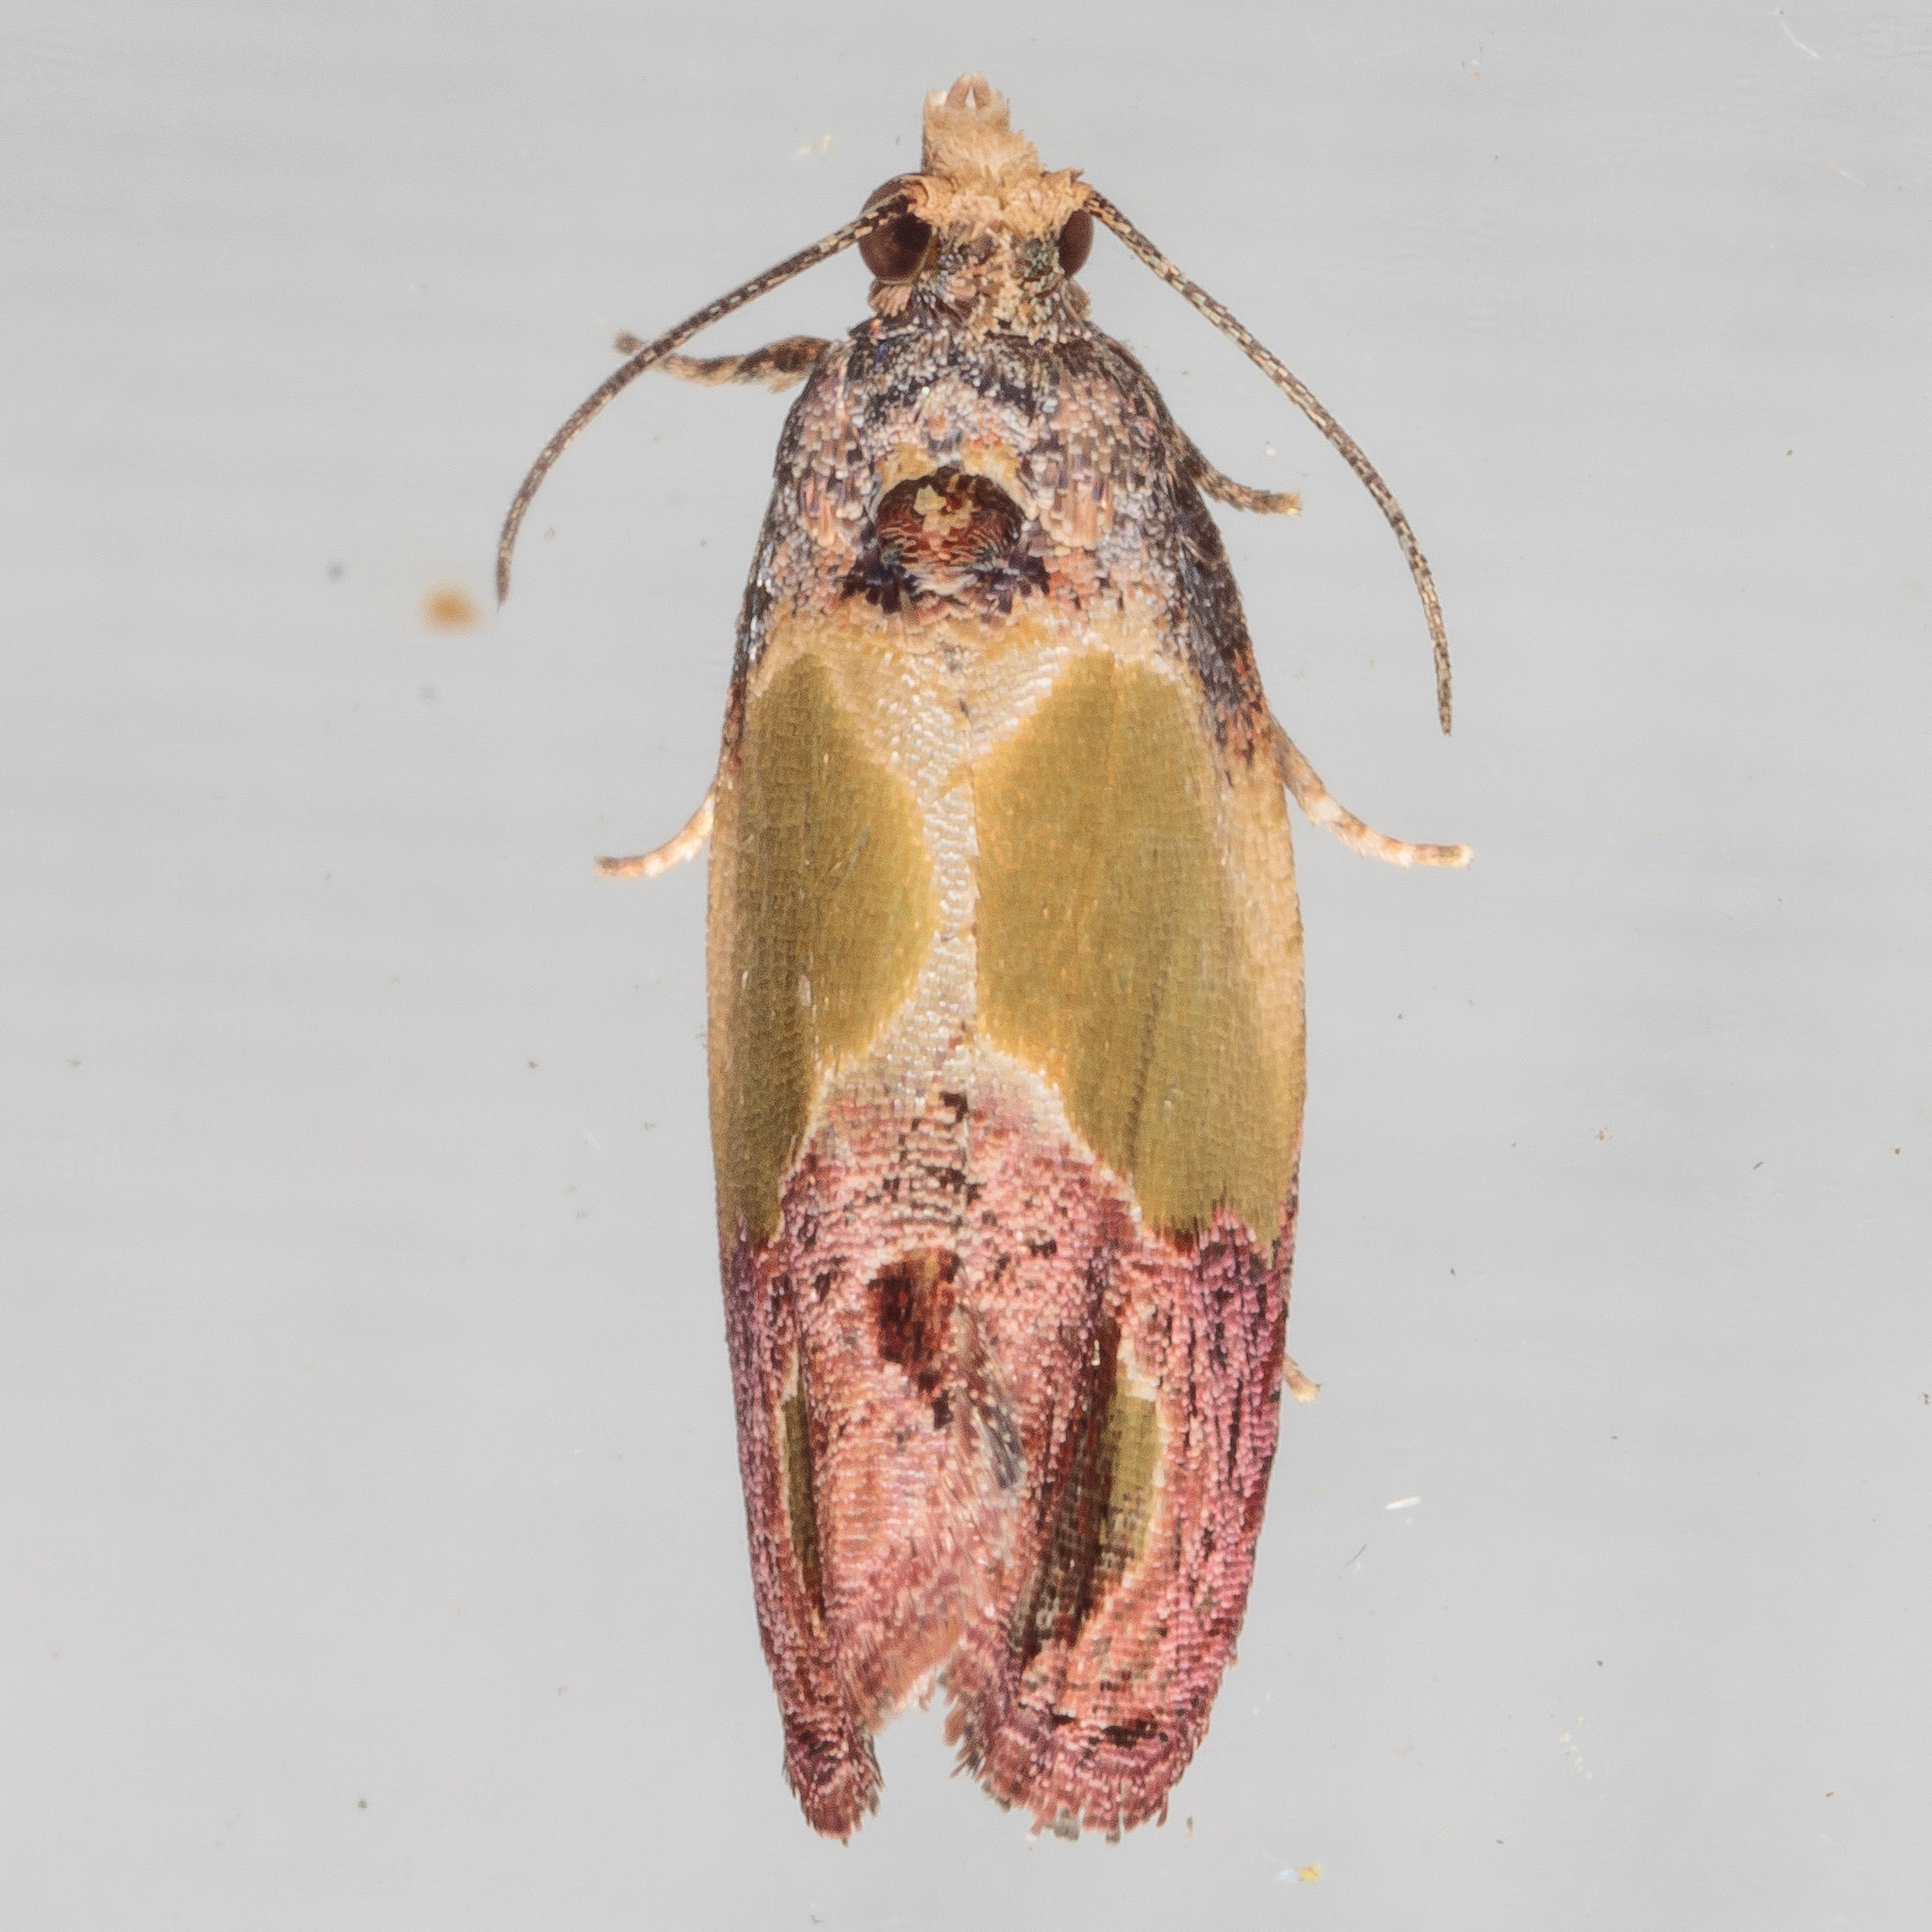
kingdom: Animalia
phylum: Arthropoda
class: Insecta
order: Lepidoptera
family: Tortricidae
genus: Eumarozia
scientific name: Eumarozia malachitana
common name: Sculptured moth
